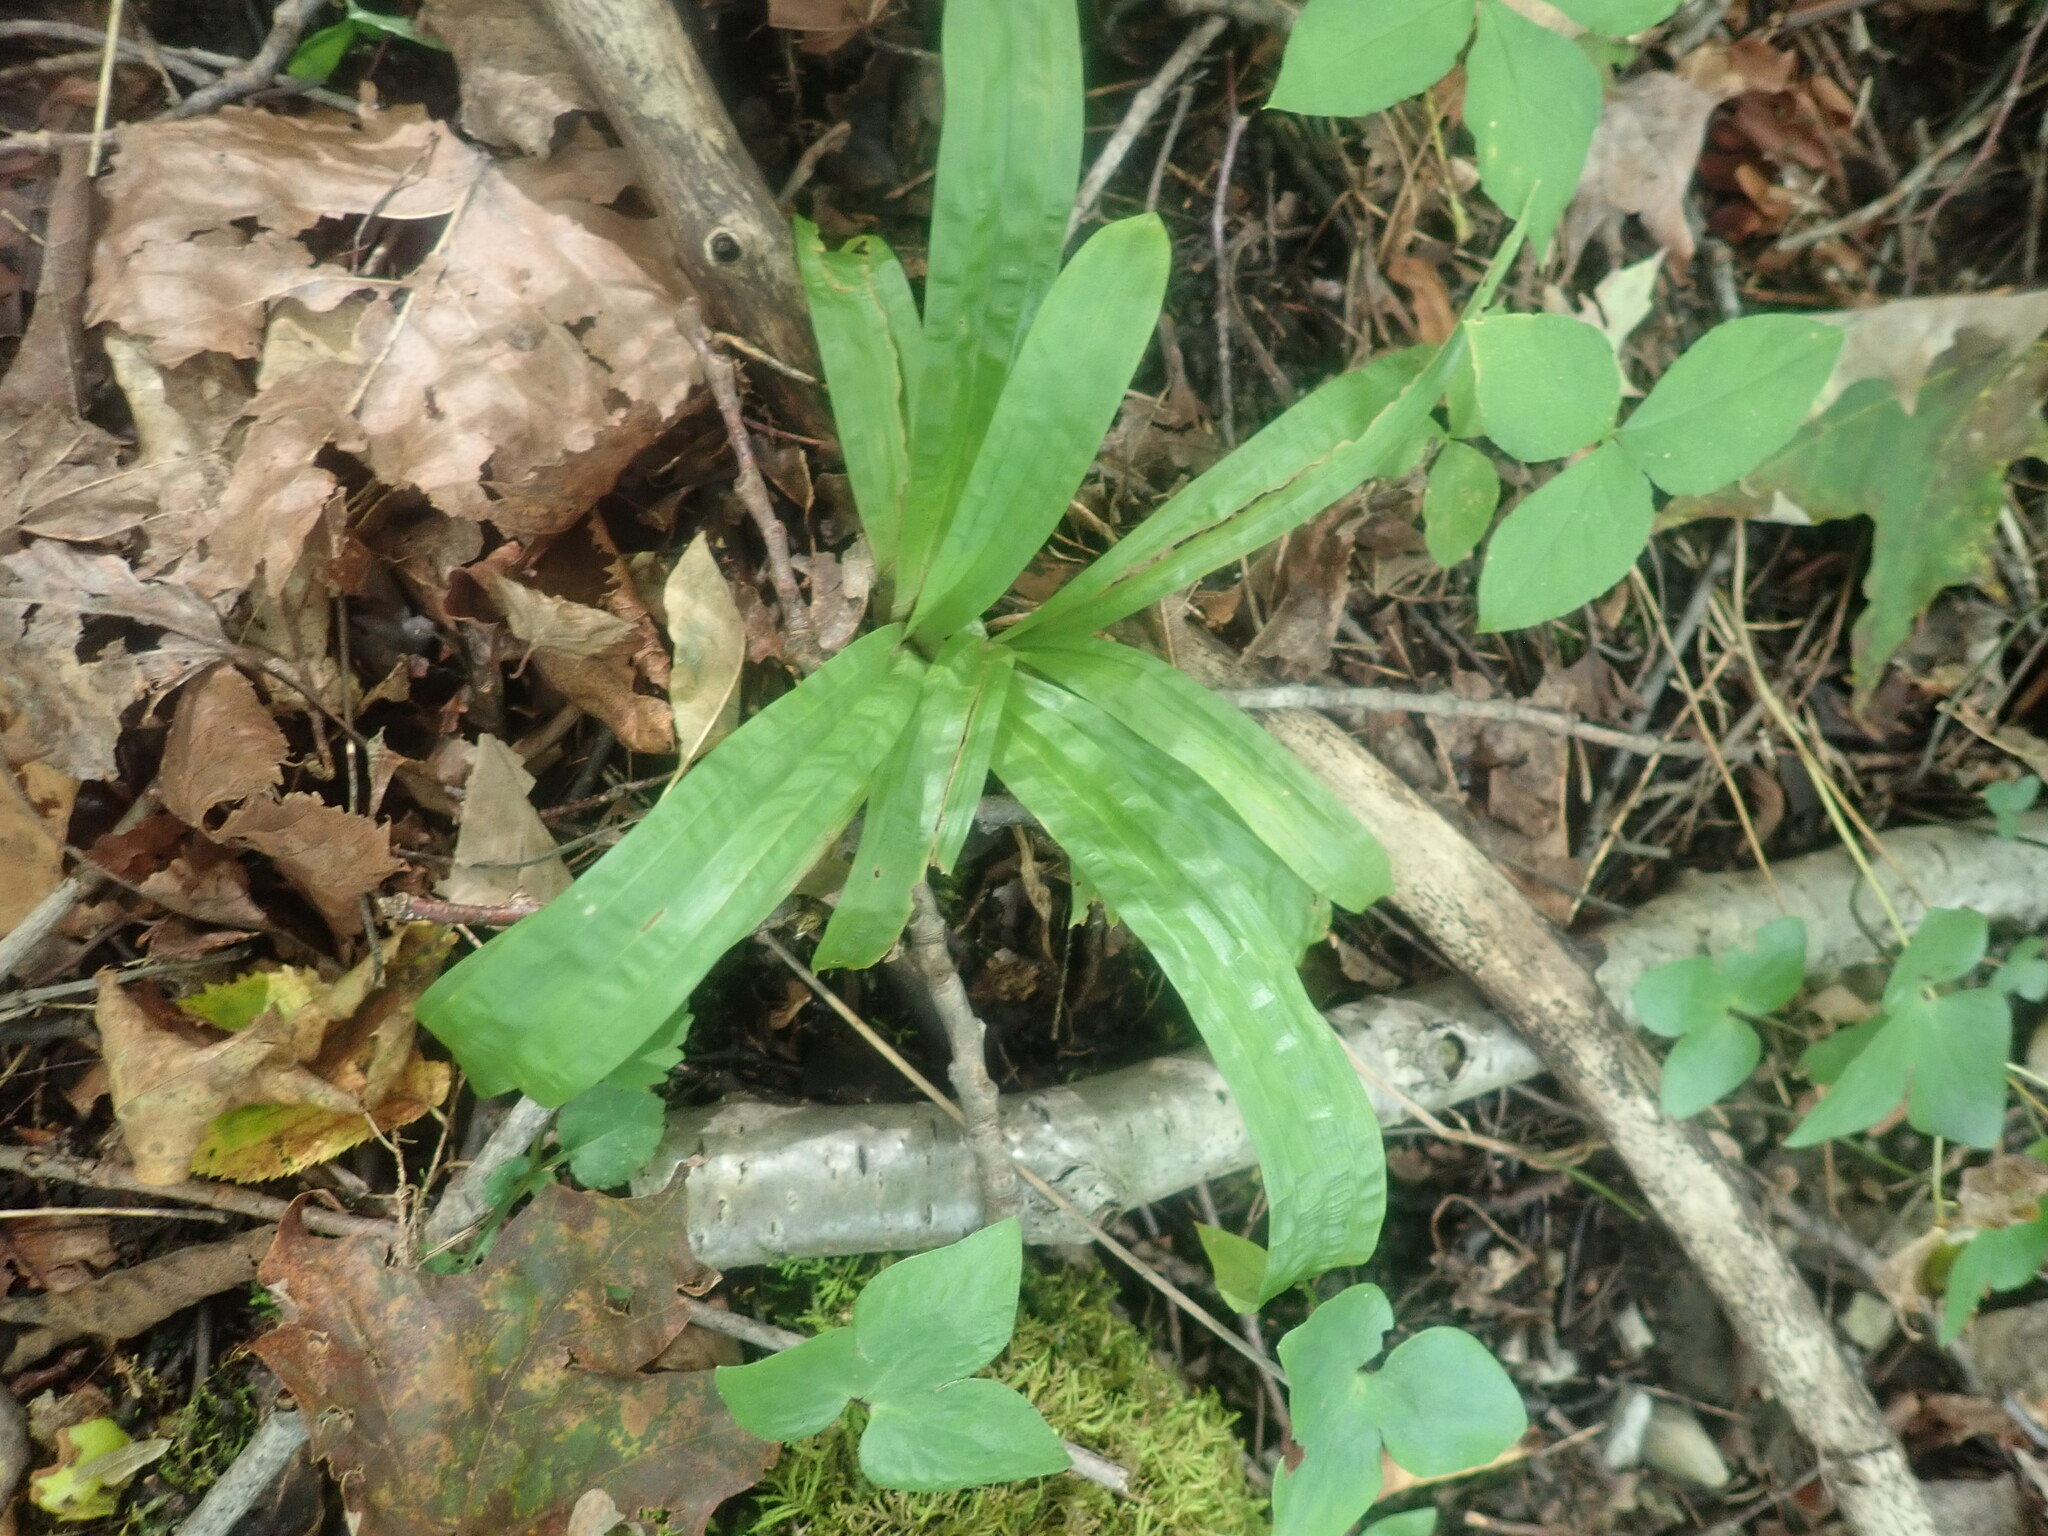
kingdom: Plantae
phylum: Tracheophyta
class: Liliopsida
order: Poales
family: Cyperaceae
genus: Carex
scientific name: Carex plantaginea
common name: Plantain-leaved sedge
